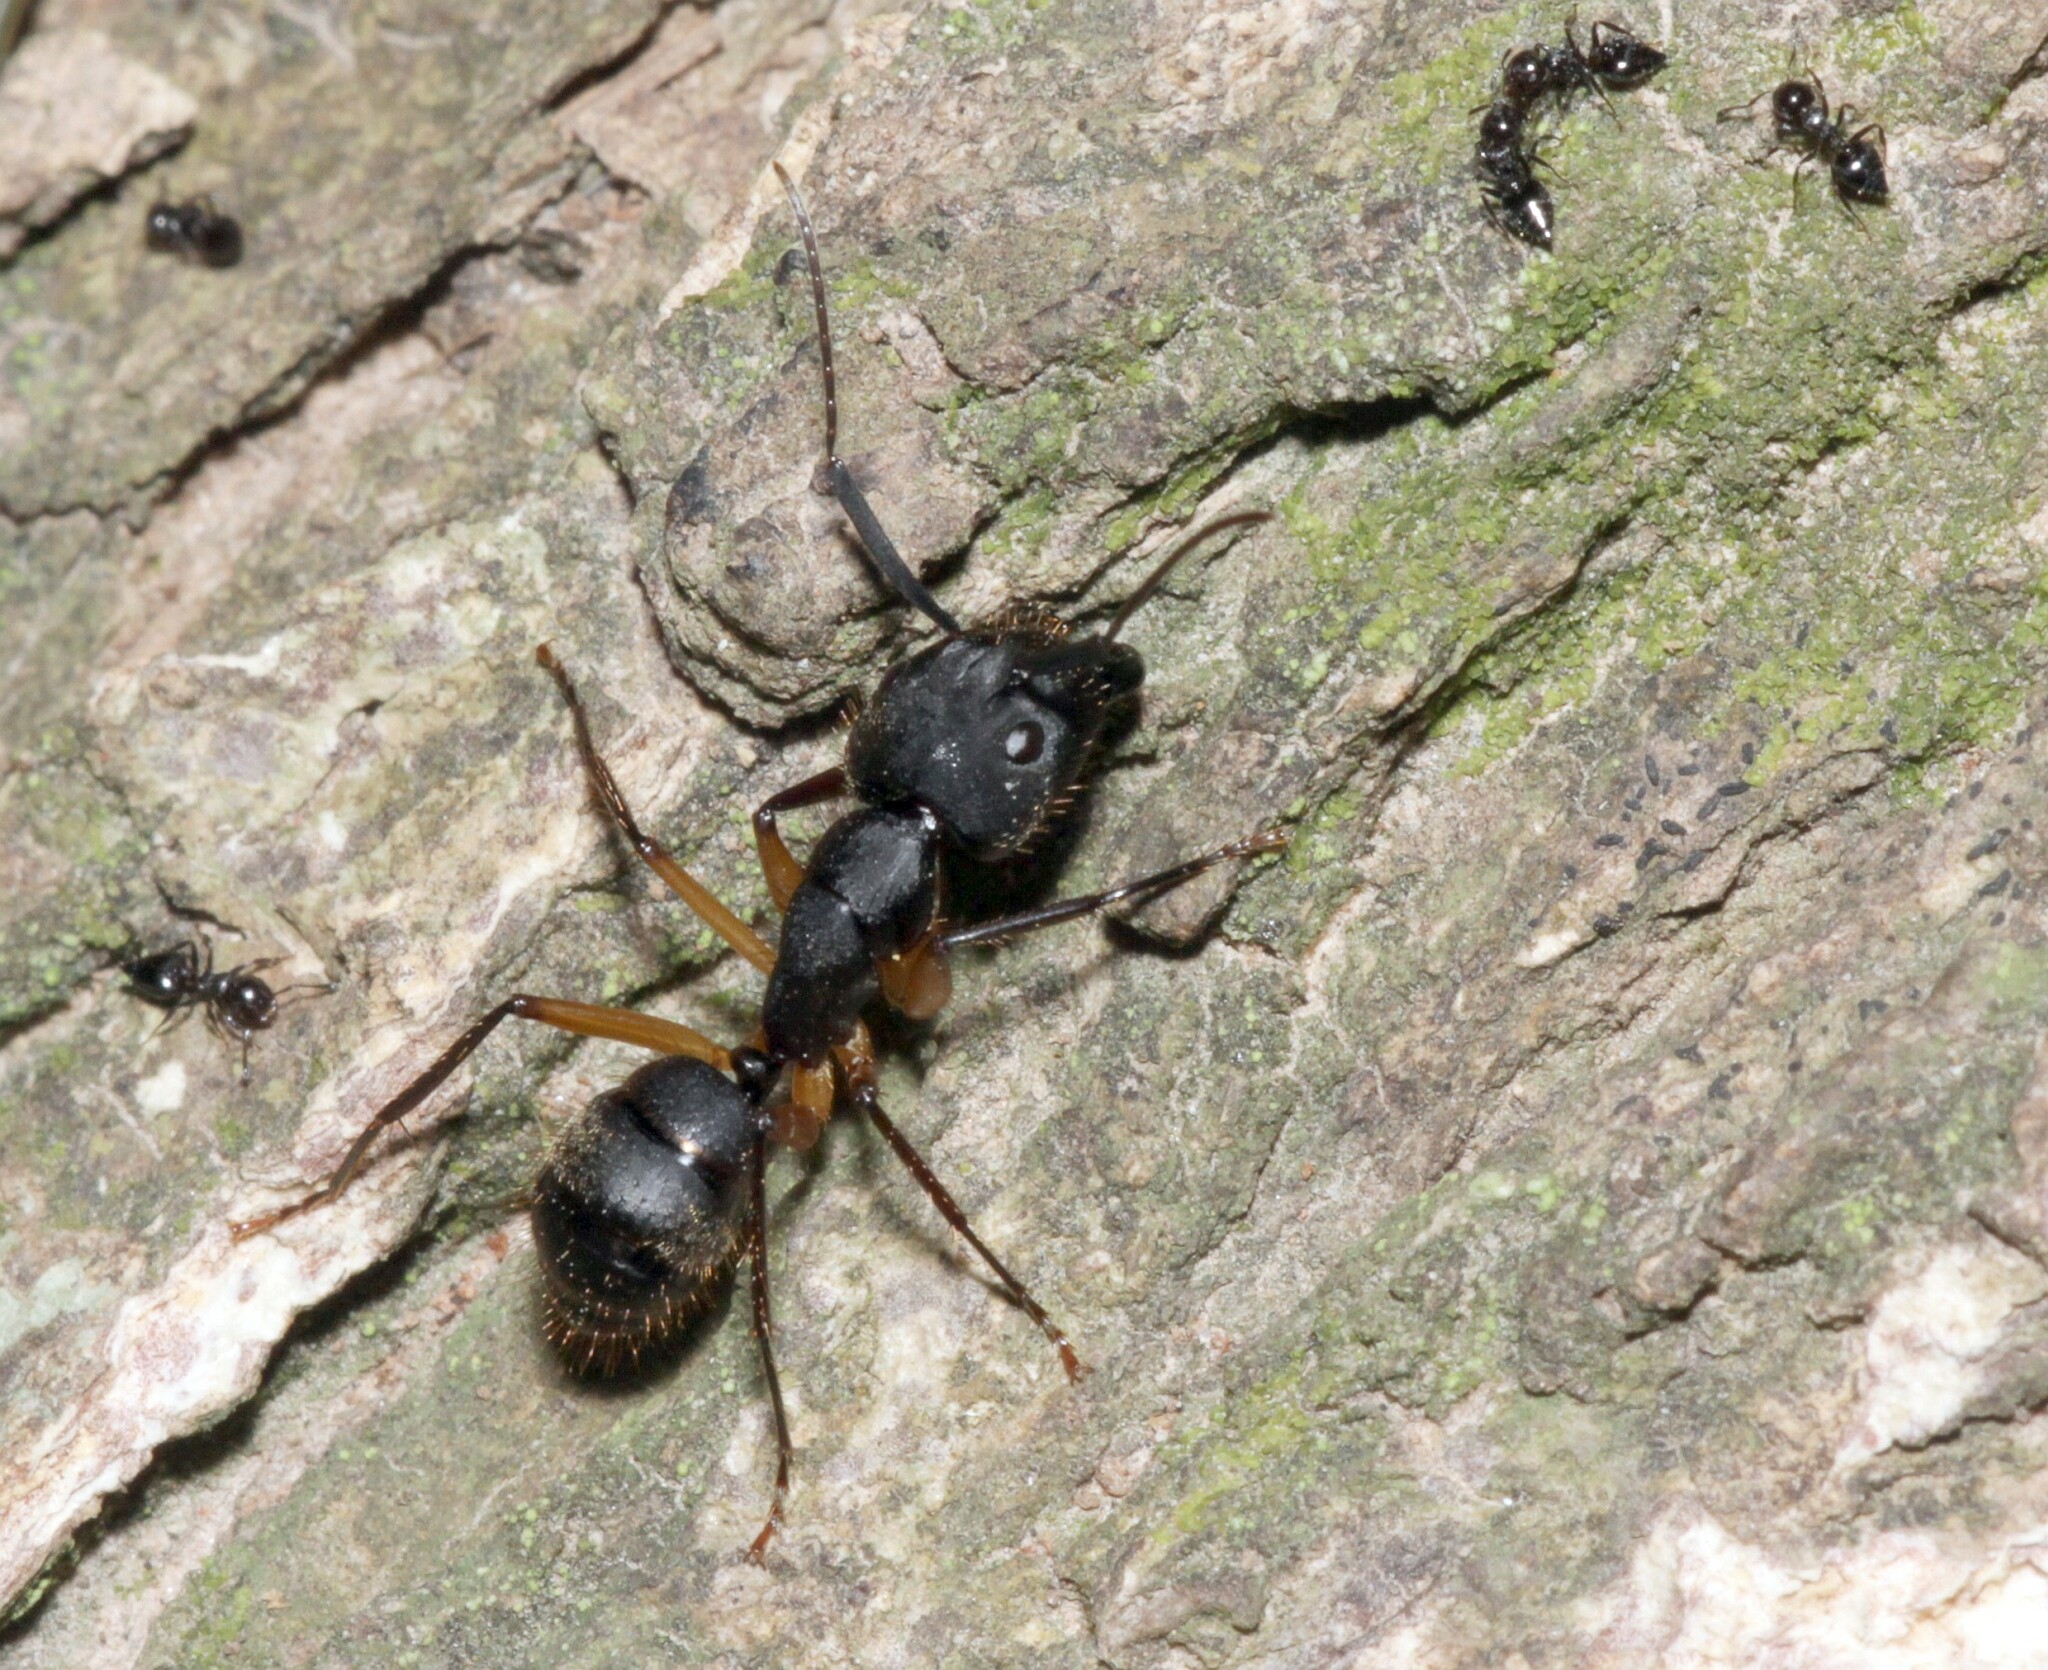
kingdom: Animalia
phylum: Arthropoda
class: Insecta
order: Hymenoptera
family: Formicidae
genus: Camponotus
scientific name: Camponotus renggeri
